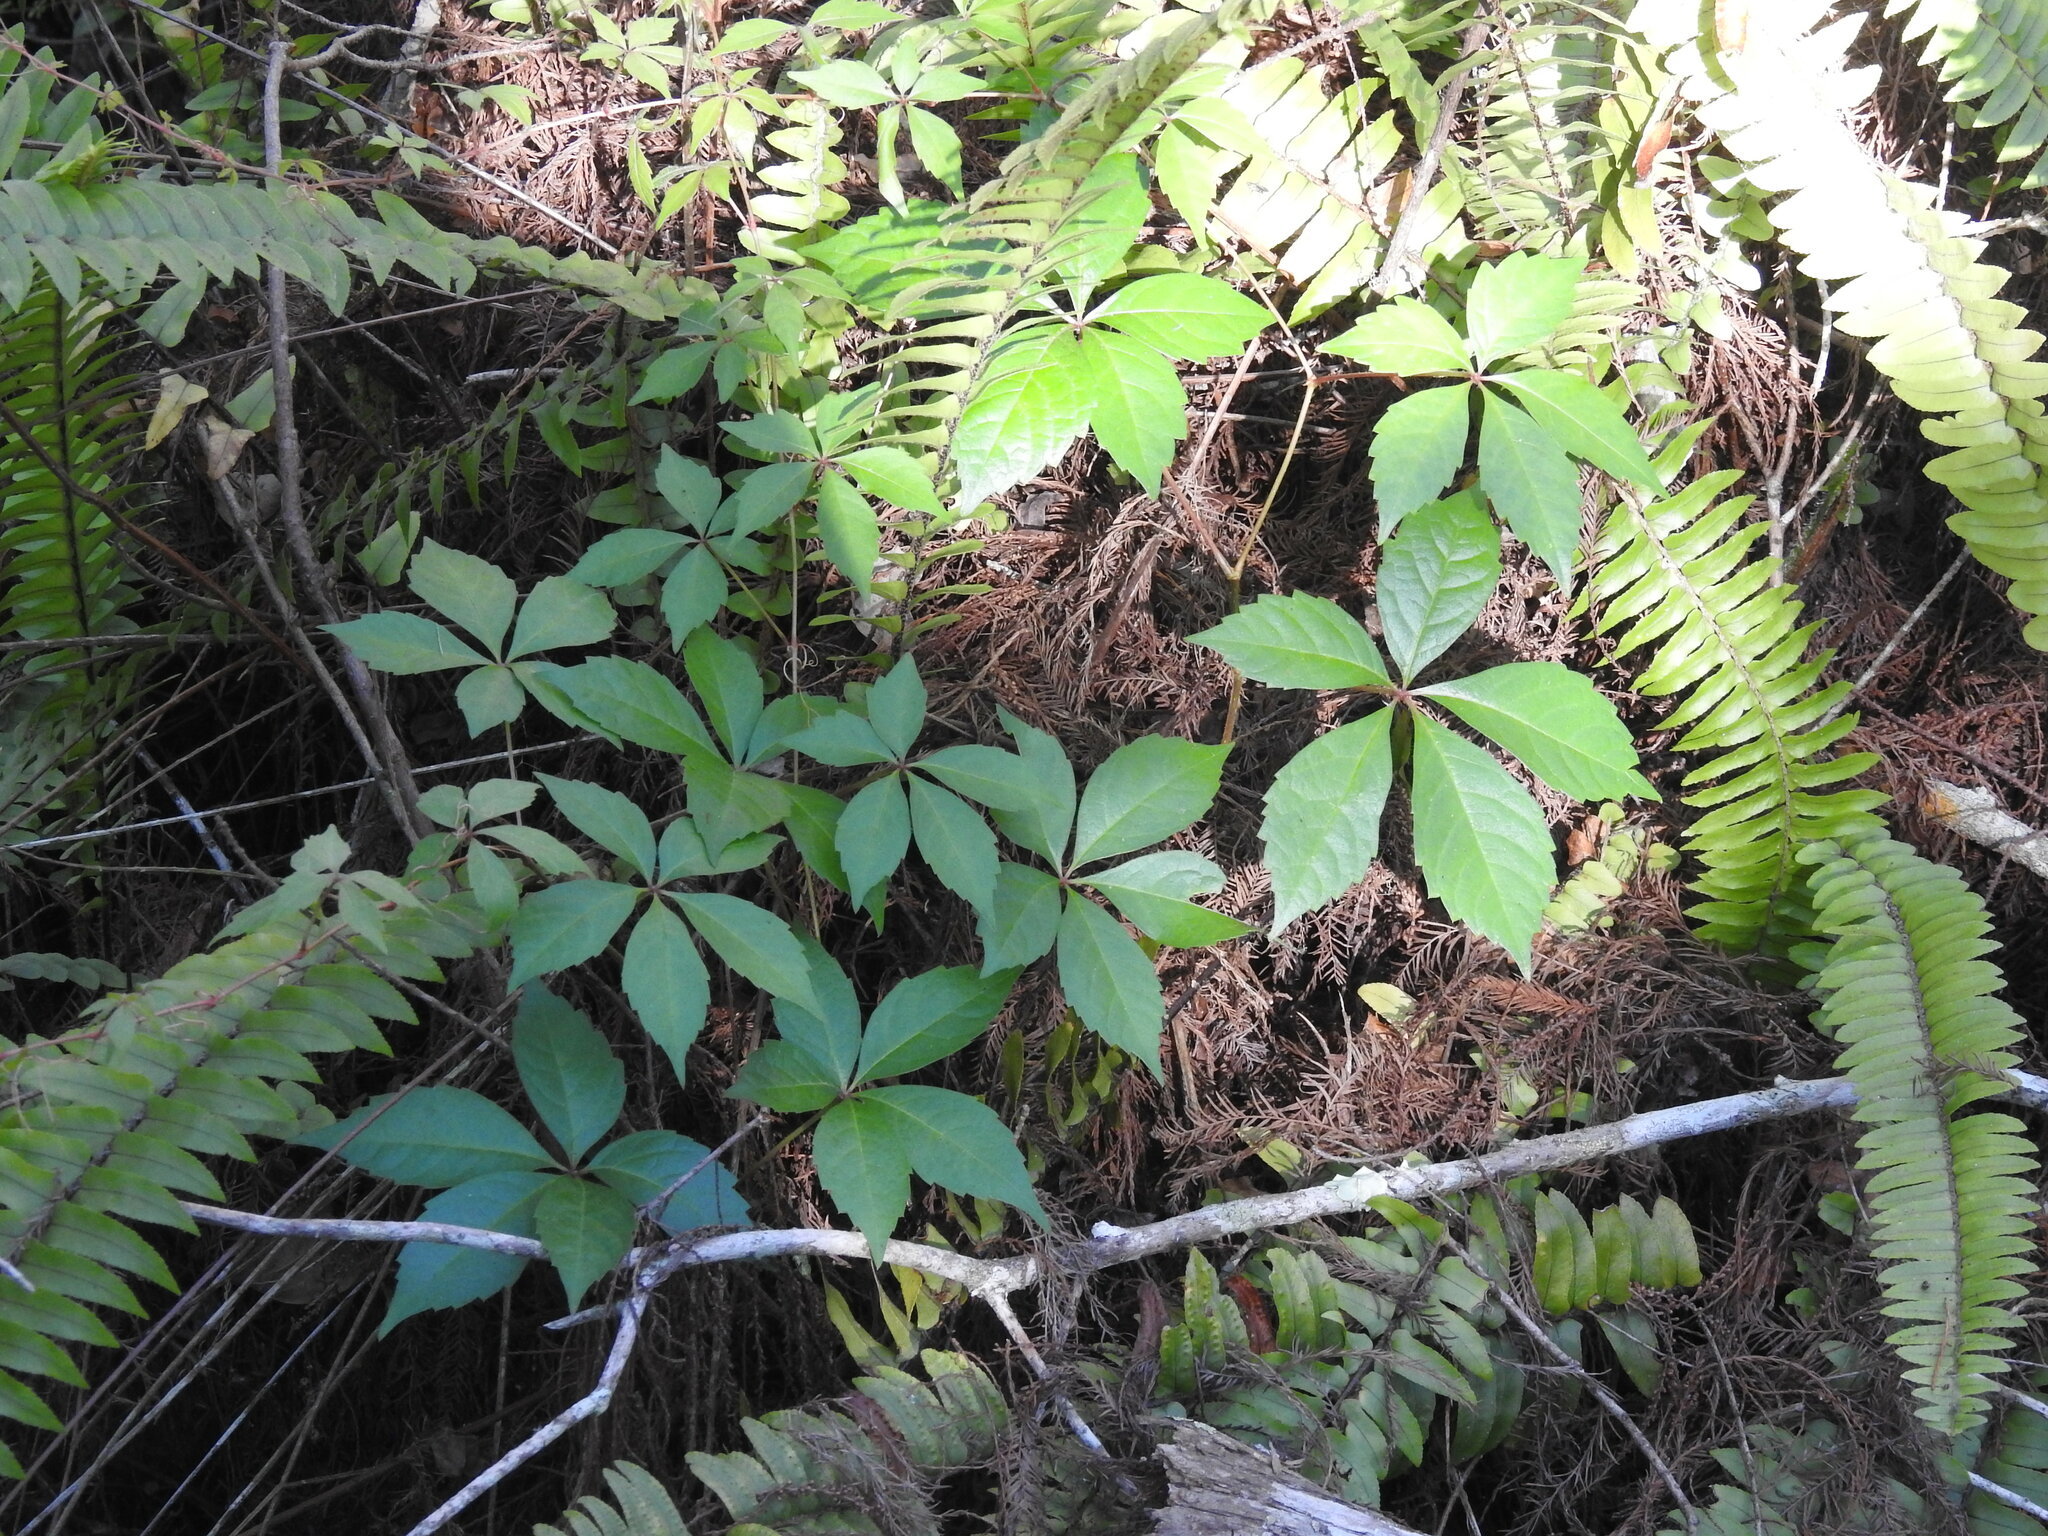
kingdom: Plantae
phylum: Tracheophyta
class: Magnoliopsida
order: Vitales
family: Vitaceae
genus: Parthenocissus
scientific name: Parthenocissus quinquefolia
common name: Virginia-creeper
